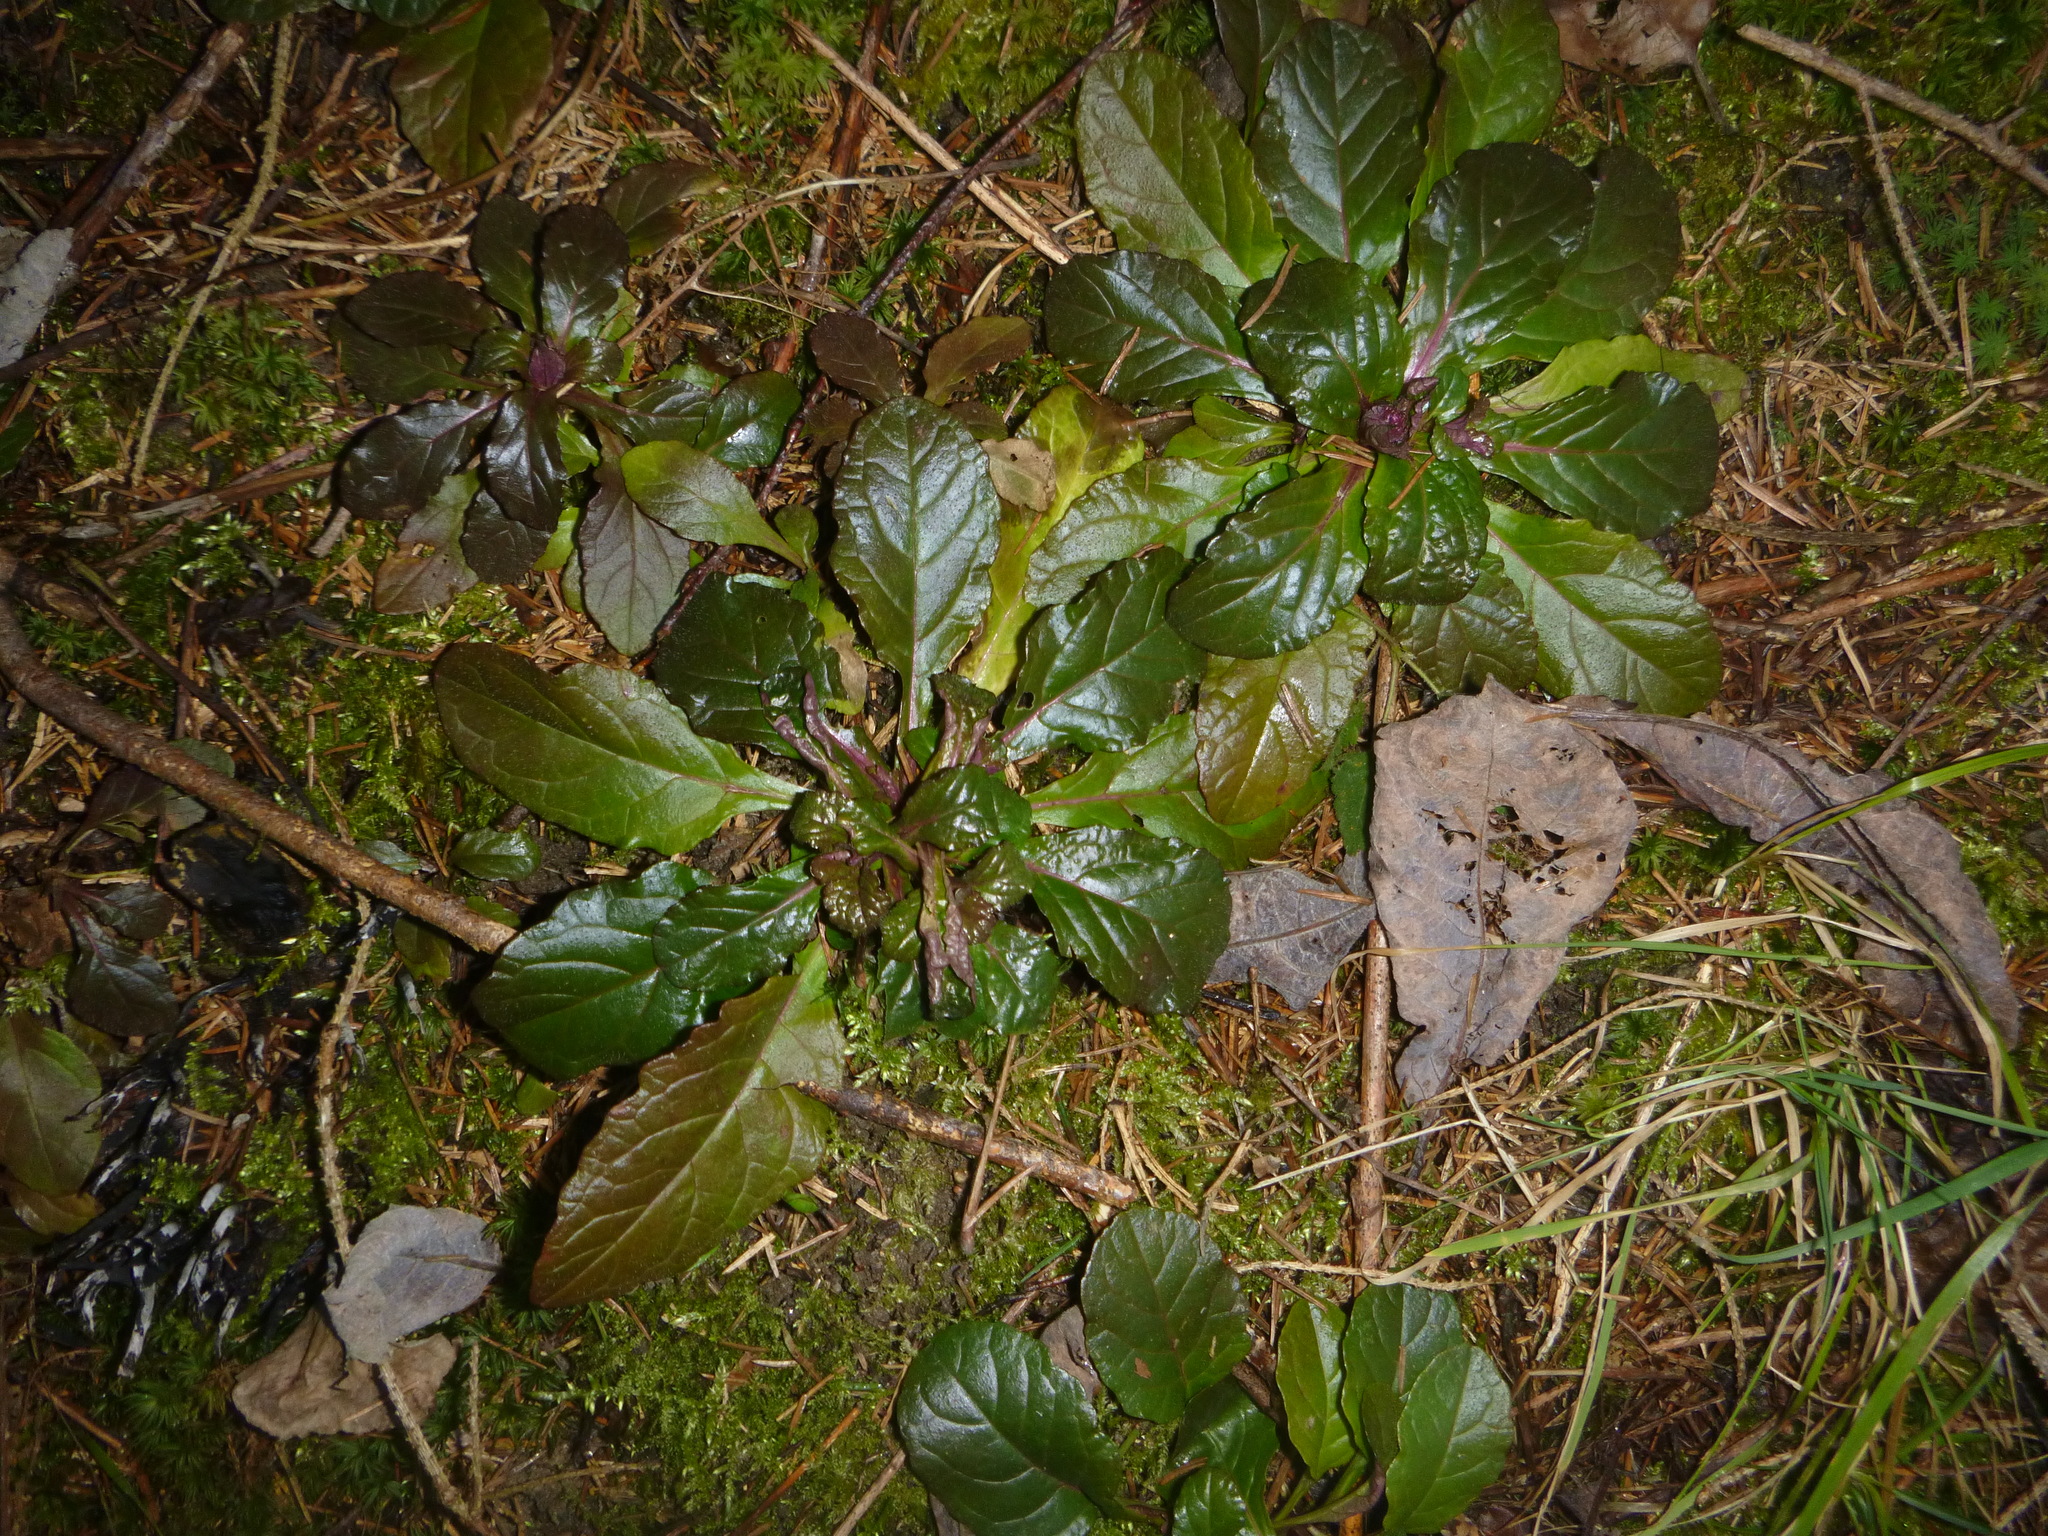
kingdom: Plantae
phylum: Tracheophyta
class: Magnoliopsida
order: Lamiales
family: Lamiaceae
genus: Ajuga
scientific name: Ajuga reptans
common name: Bugle
